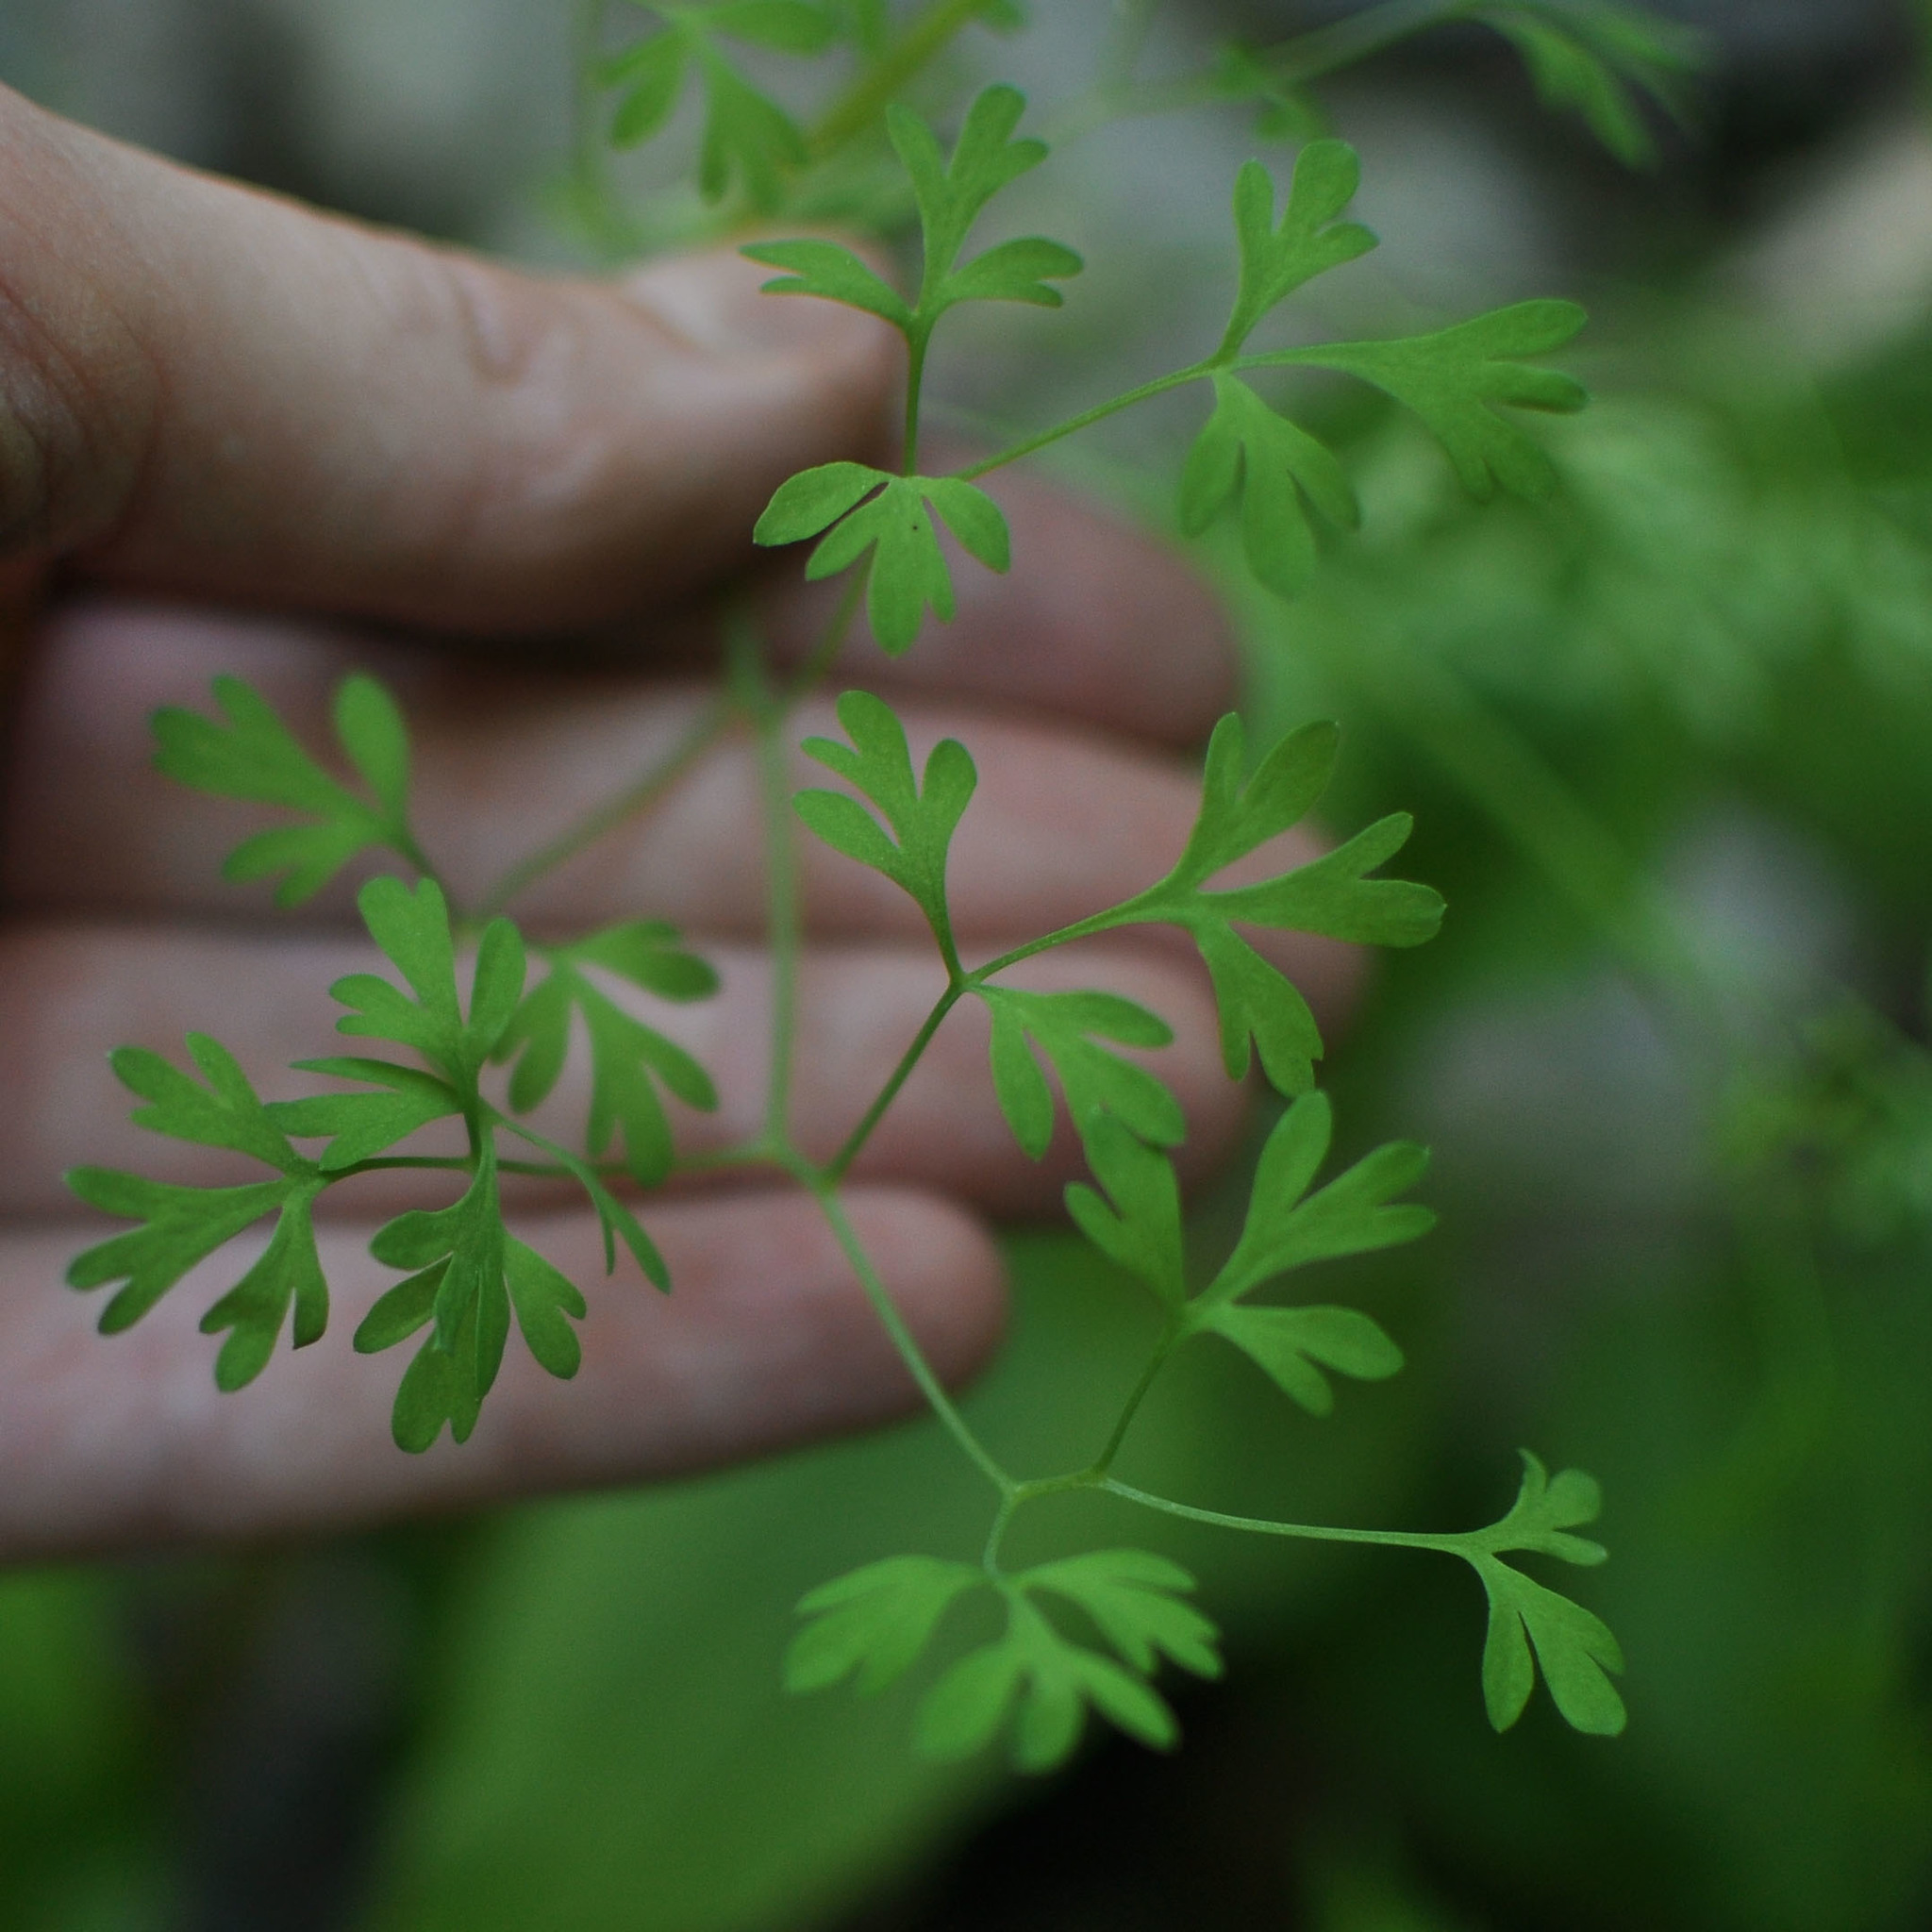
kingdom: Plantae
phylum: Tracheophyta
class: Magnoliopsida
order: Ranunculales
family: Papaveraceae
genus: Fumaria
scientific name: Fumaria officinalis
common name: Common fumitory
